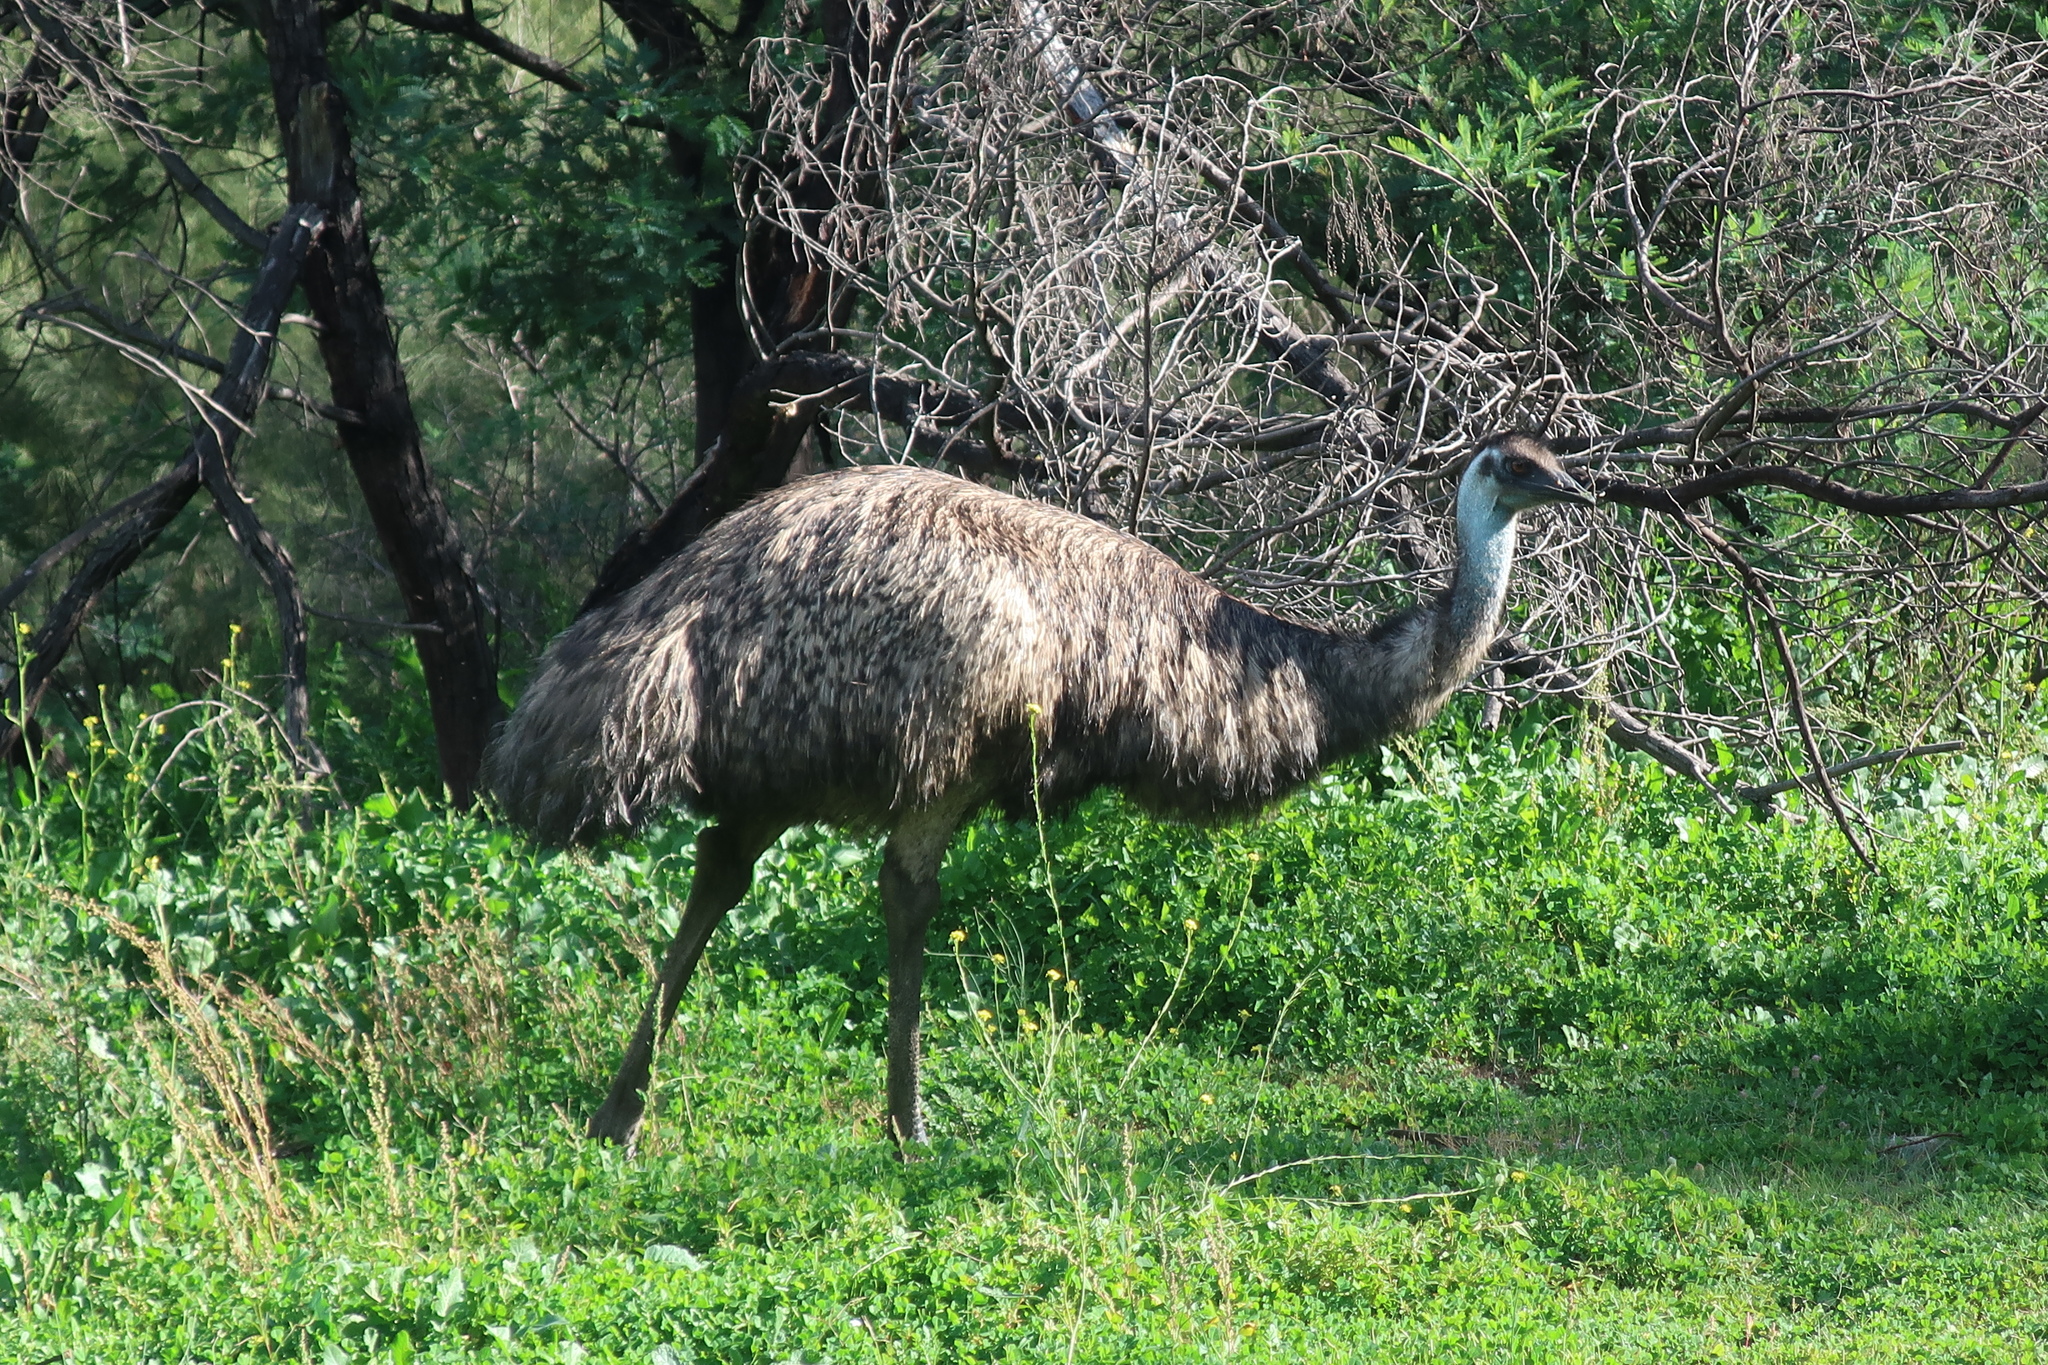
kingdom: Animalia
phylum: Chordata
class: Aves
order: Casuariiformes
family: Dromaiidae
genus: Dromaius
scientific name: Dromaius novaehollandiae
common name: Emu
